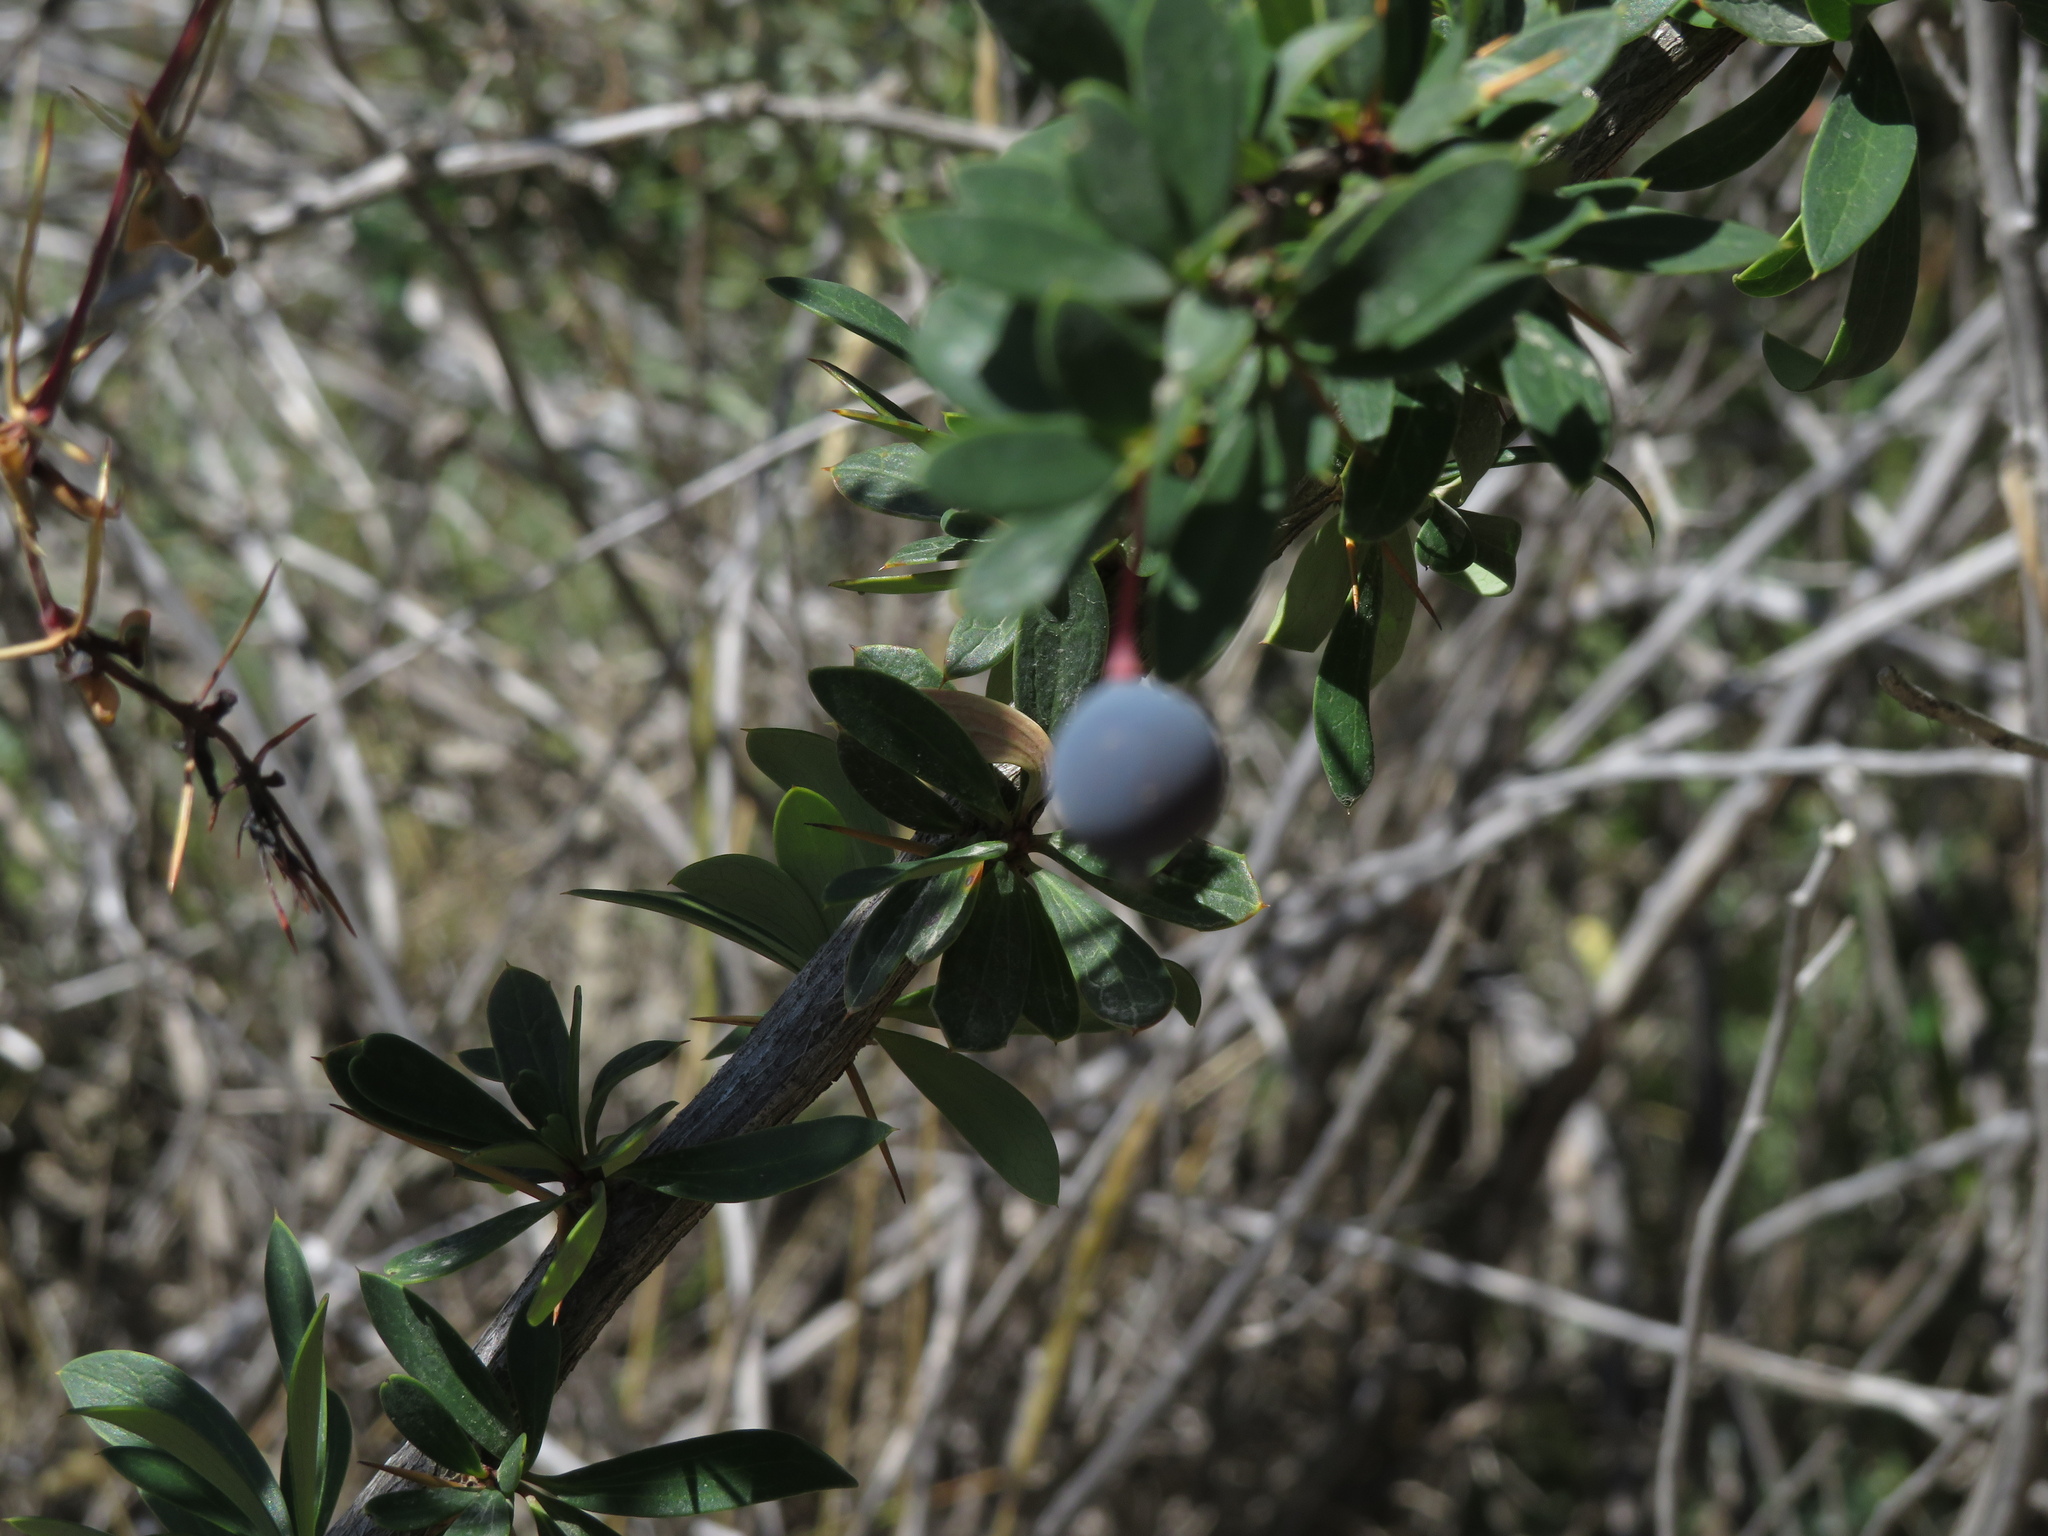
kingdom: Plantae
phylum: Tracheophyta
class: Magnoliopsida
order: Ranunculales
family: Berberidaceae
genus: Berberis
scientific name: Berberis microphylla
